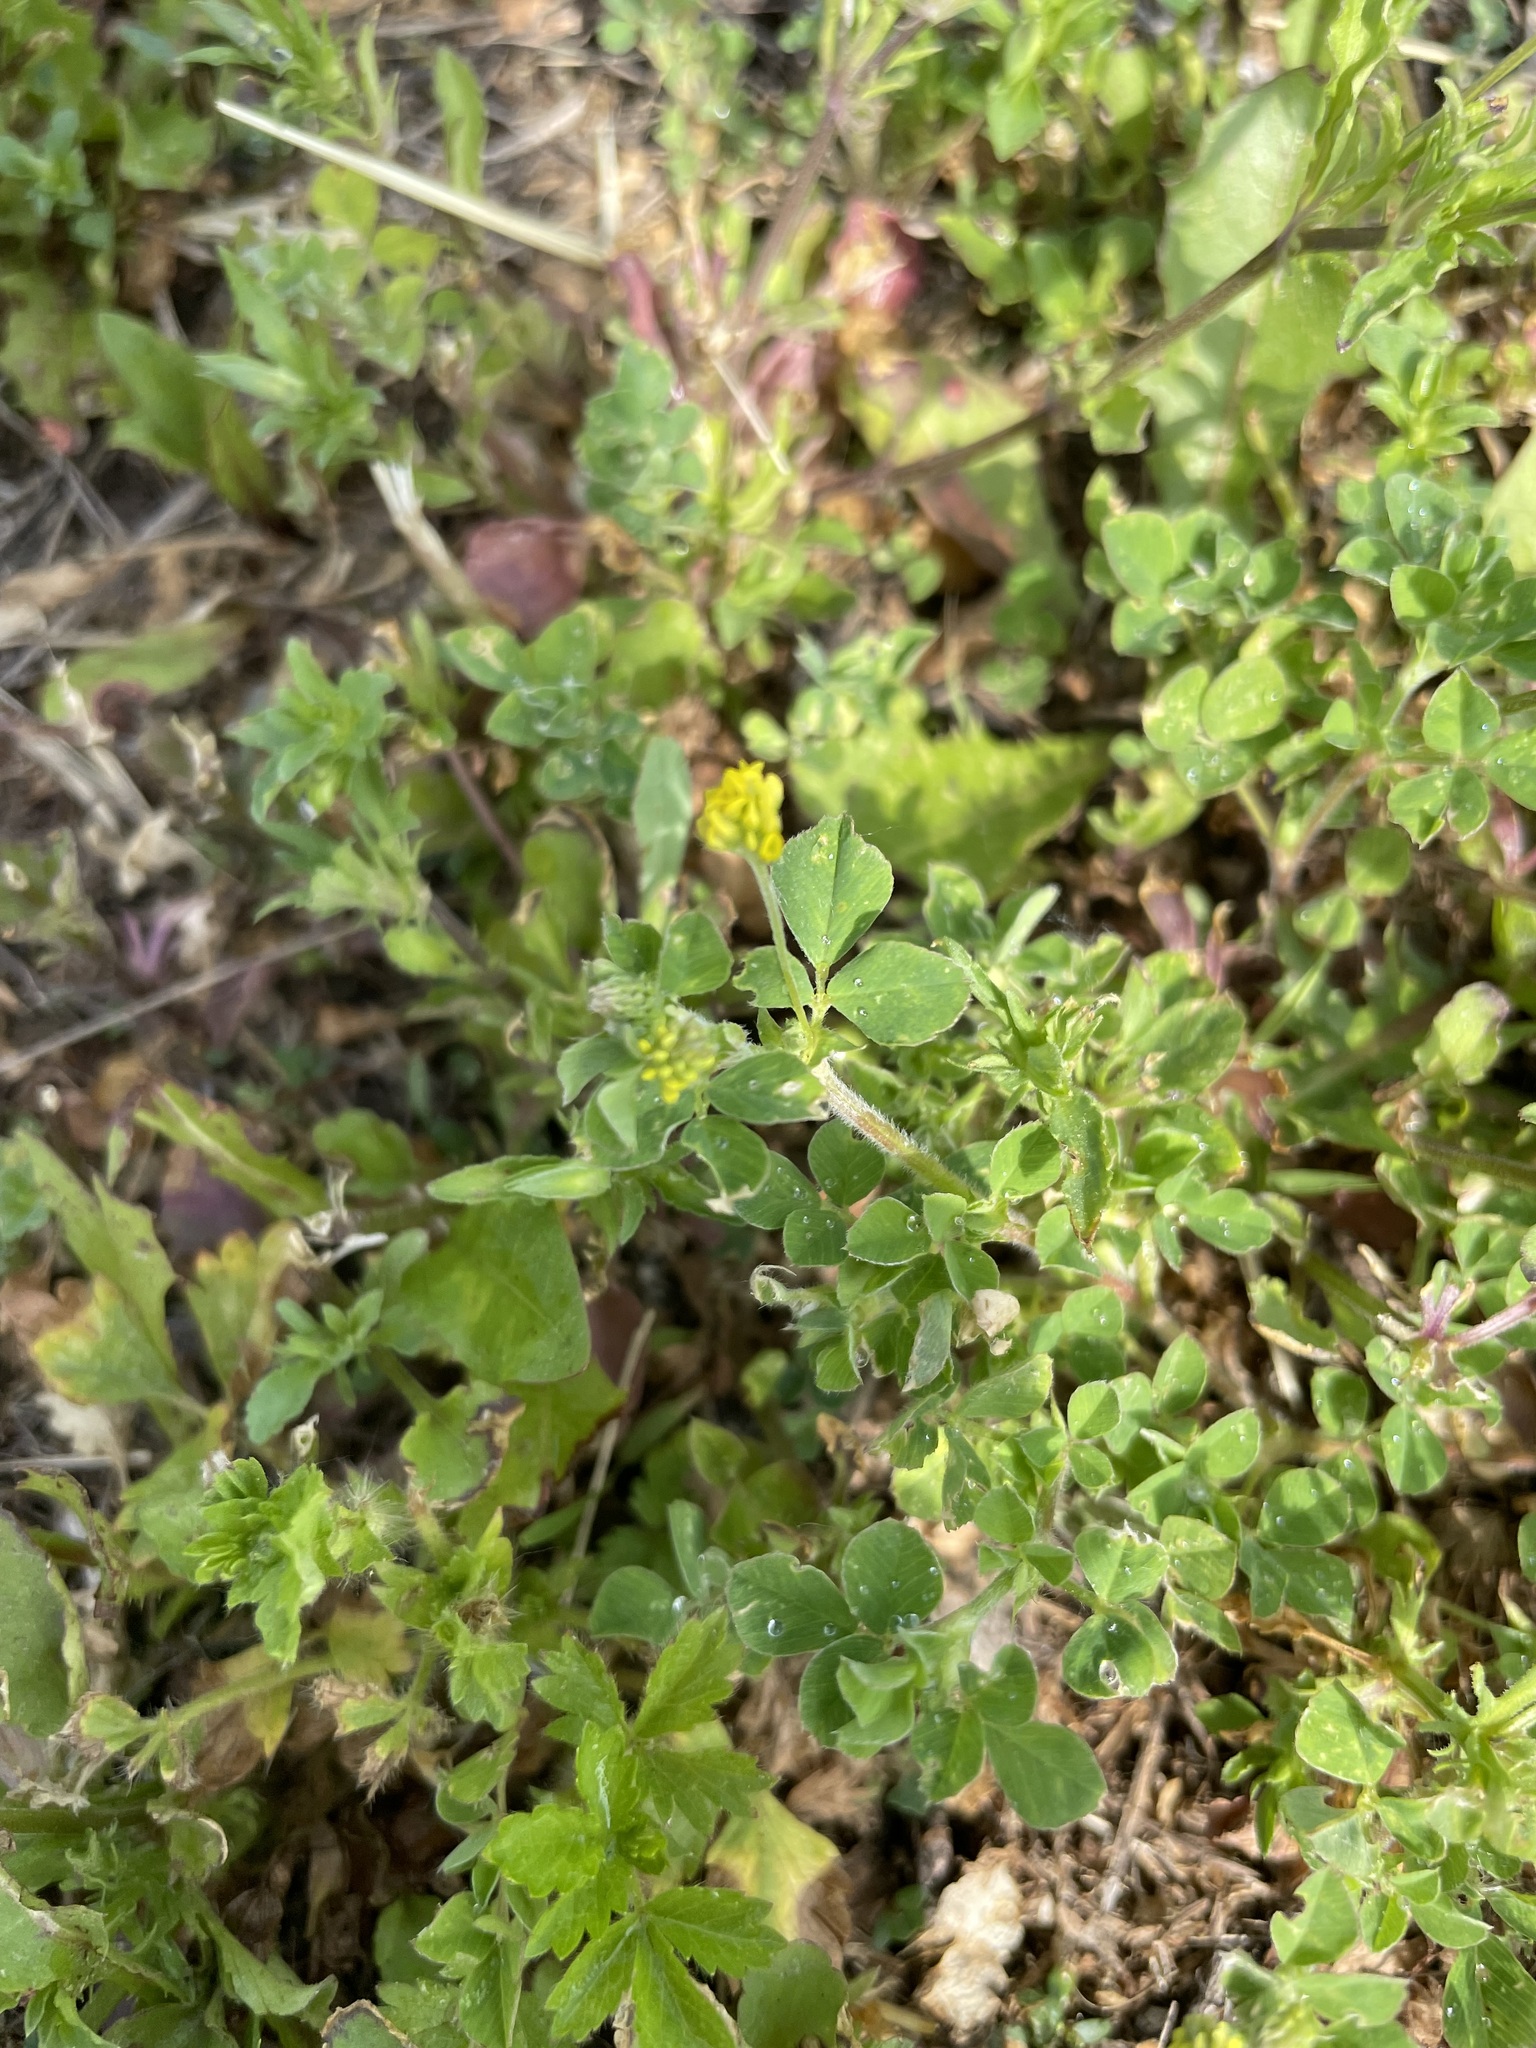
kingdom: Plantae
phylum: Tracheophyta
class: Magnoliopsida
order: Fabales
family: Fabaceae
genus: Medicago
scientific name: Medicago lupulina
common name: Black medick
